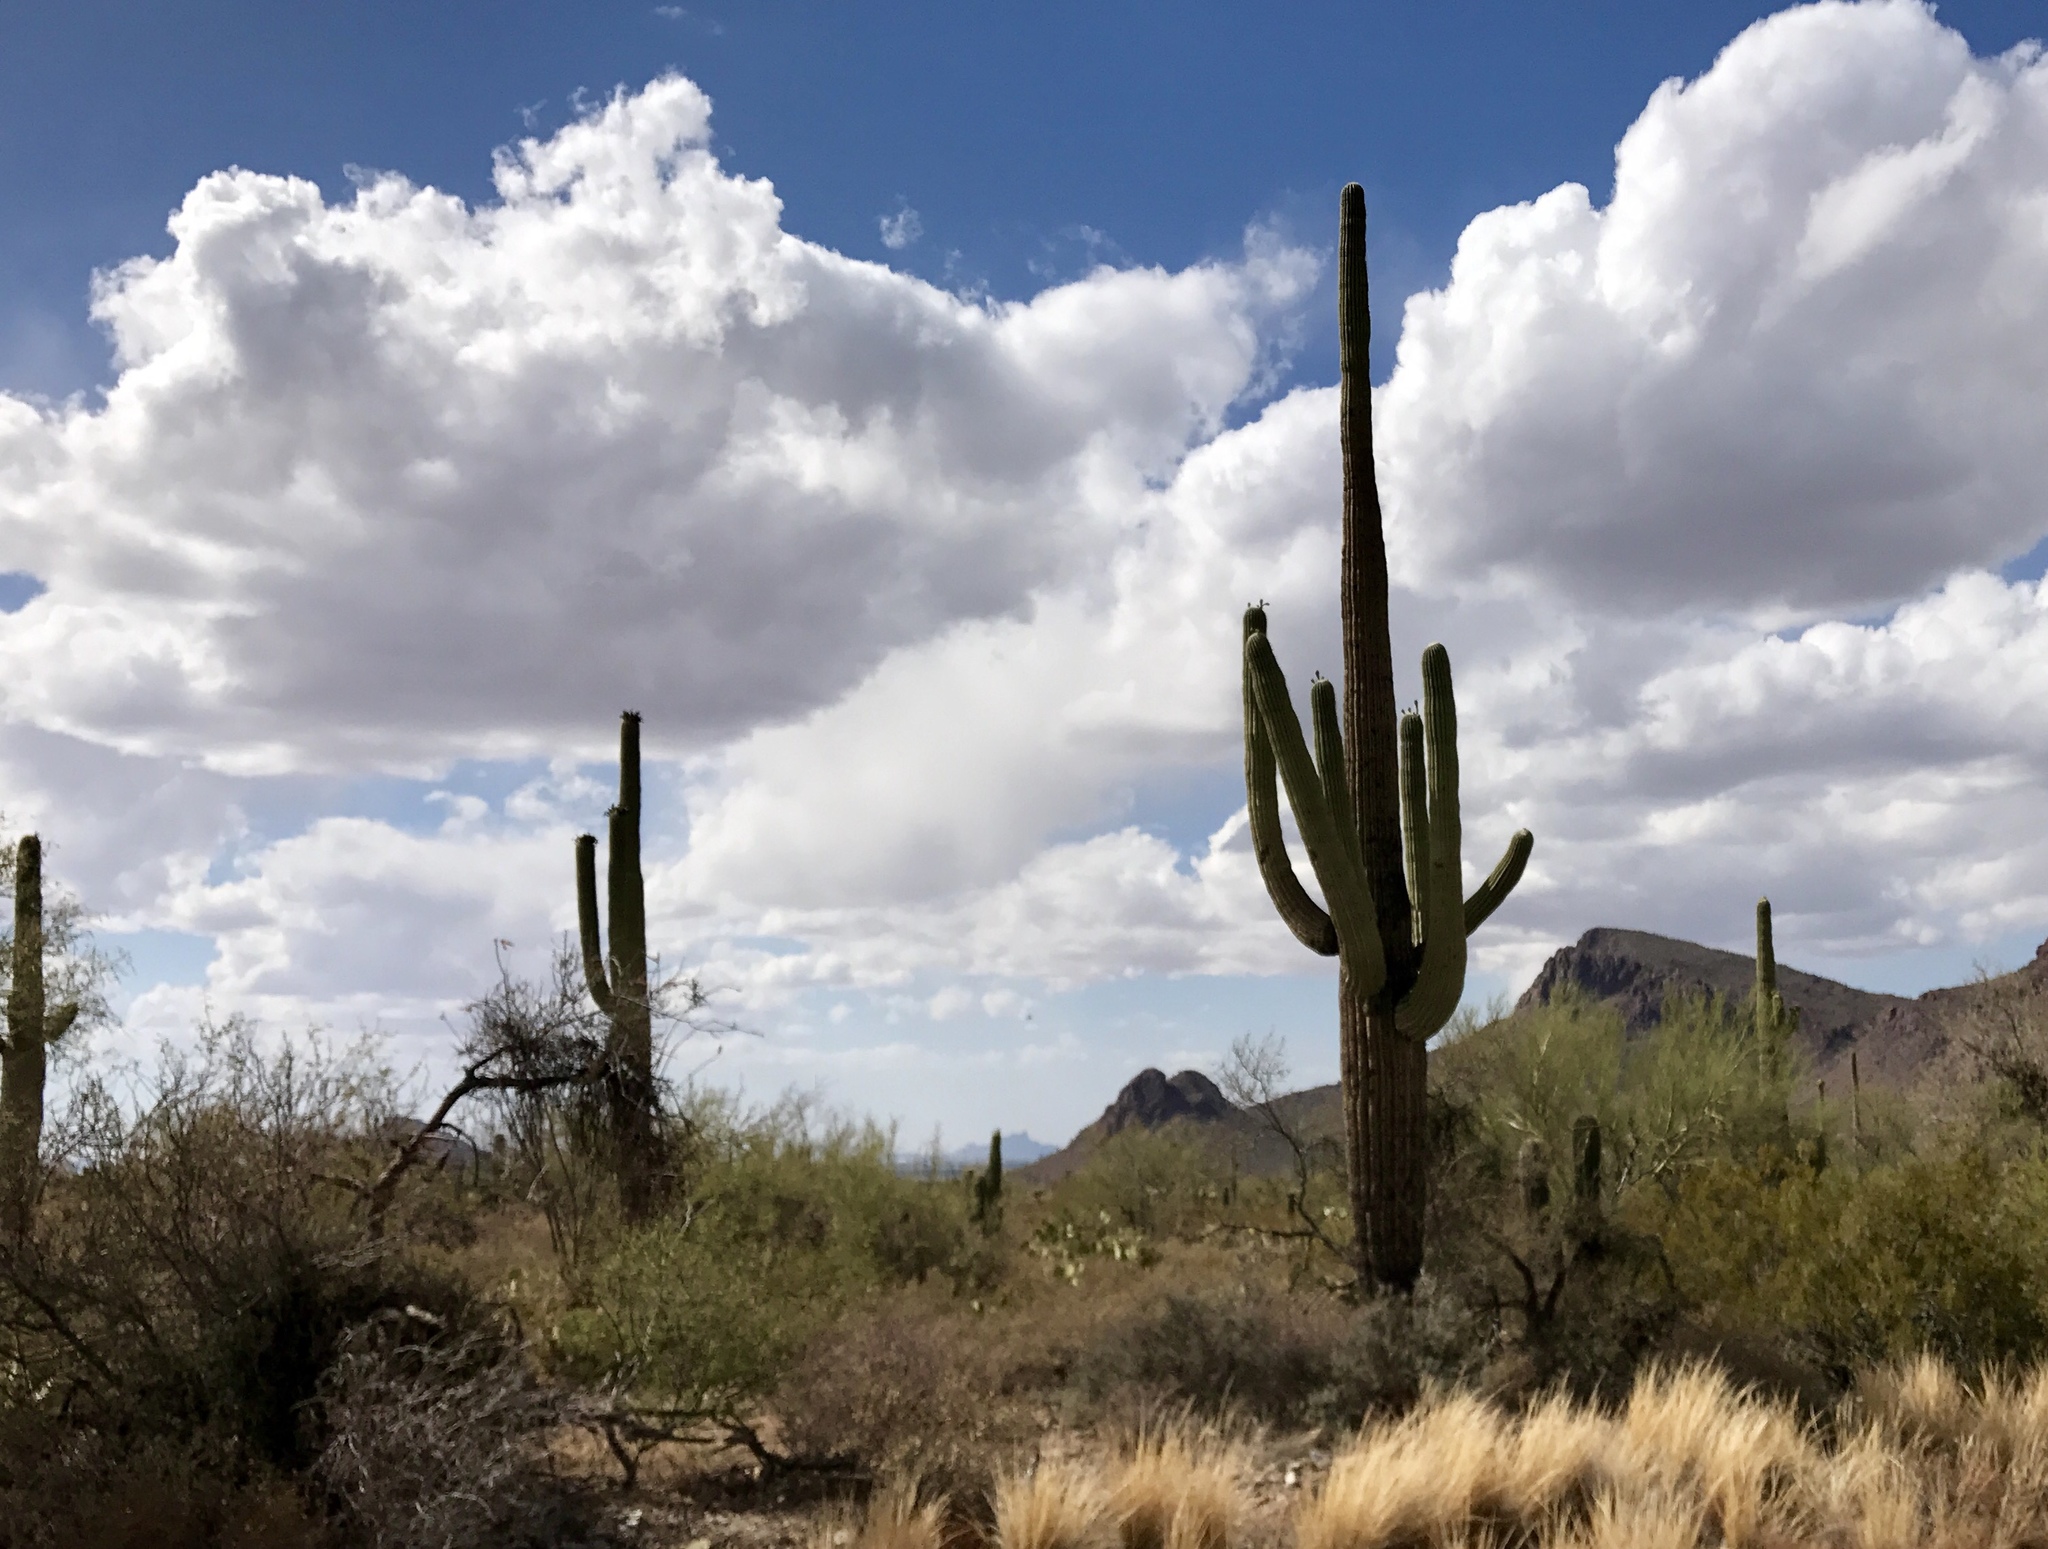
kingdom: Plantae
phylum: Tracheophyta
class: Magnoliopsida
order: Caryophyllales
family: Cactaceae
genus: Carnegiea
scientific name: Carnegiea gigantea
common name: Saguaro
